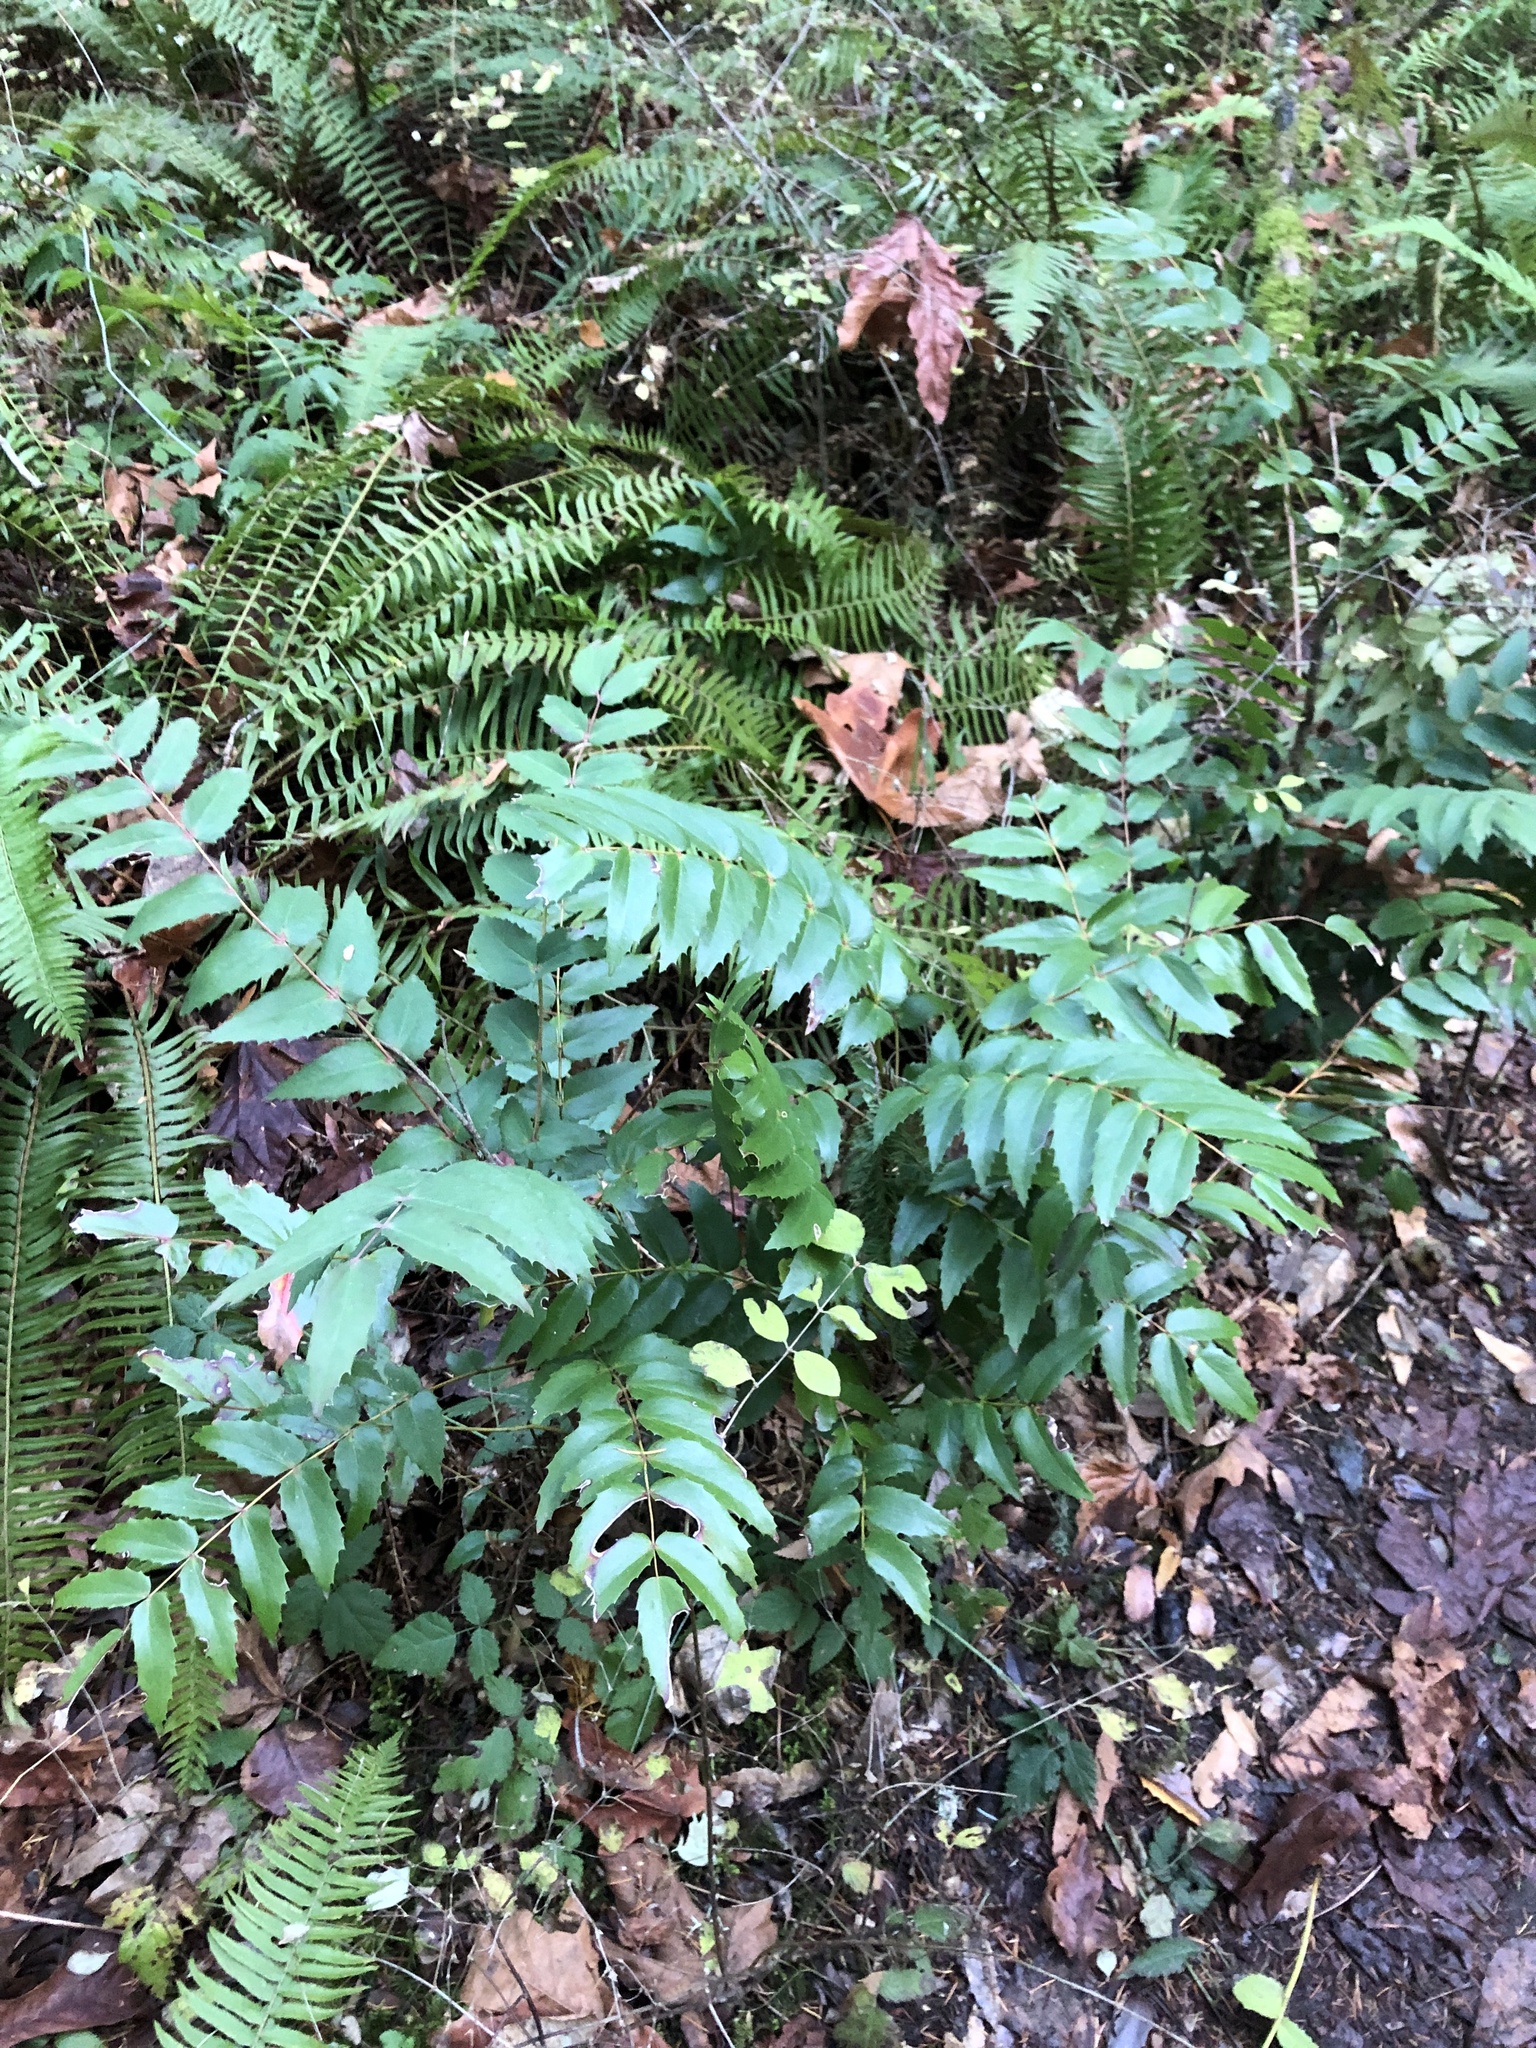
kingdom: Plantae
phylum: Tracheophyta
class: Magnoliopsida
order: Ranunculales
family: Berberidaceae
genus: Mahonia
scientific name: Mahonia nervosa
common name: Cascade oregon-grape
